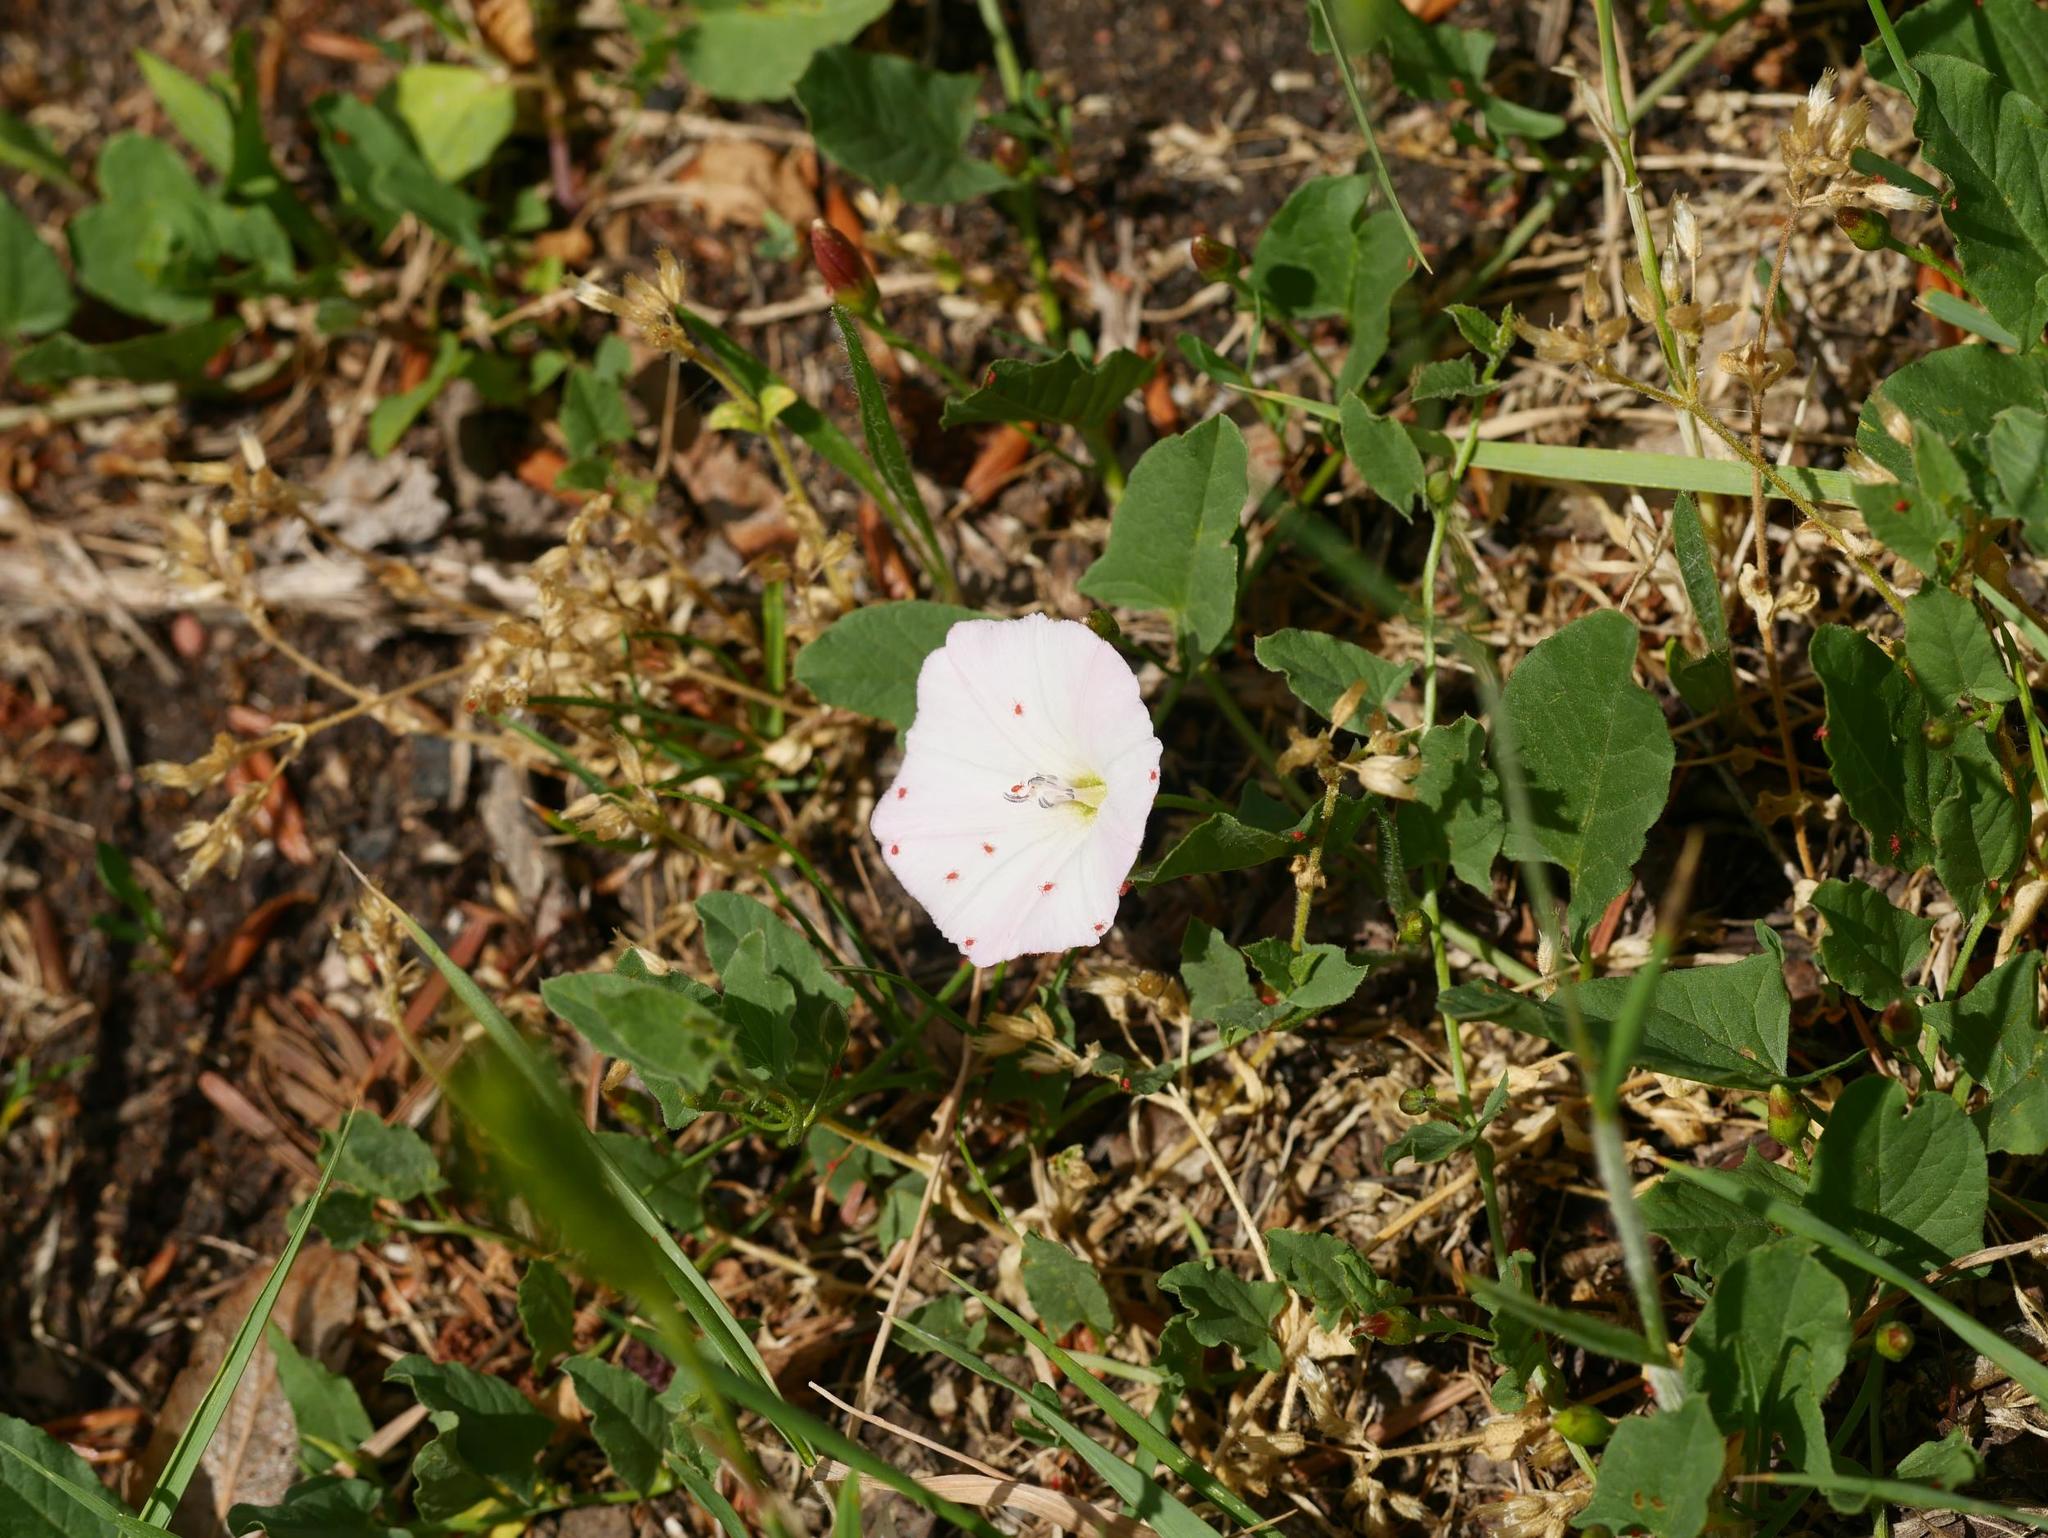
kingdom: Plantae
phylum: Tracheophyta
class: Magnoliopsida
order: Solanales
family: Convolvulaceae
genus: Convolvulus
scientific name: Convolvulus arvensis
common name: Field bindweed
